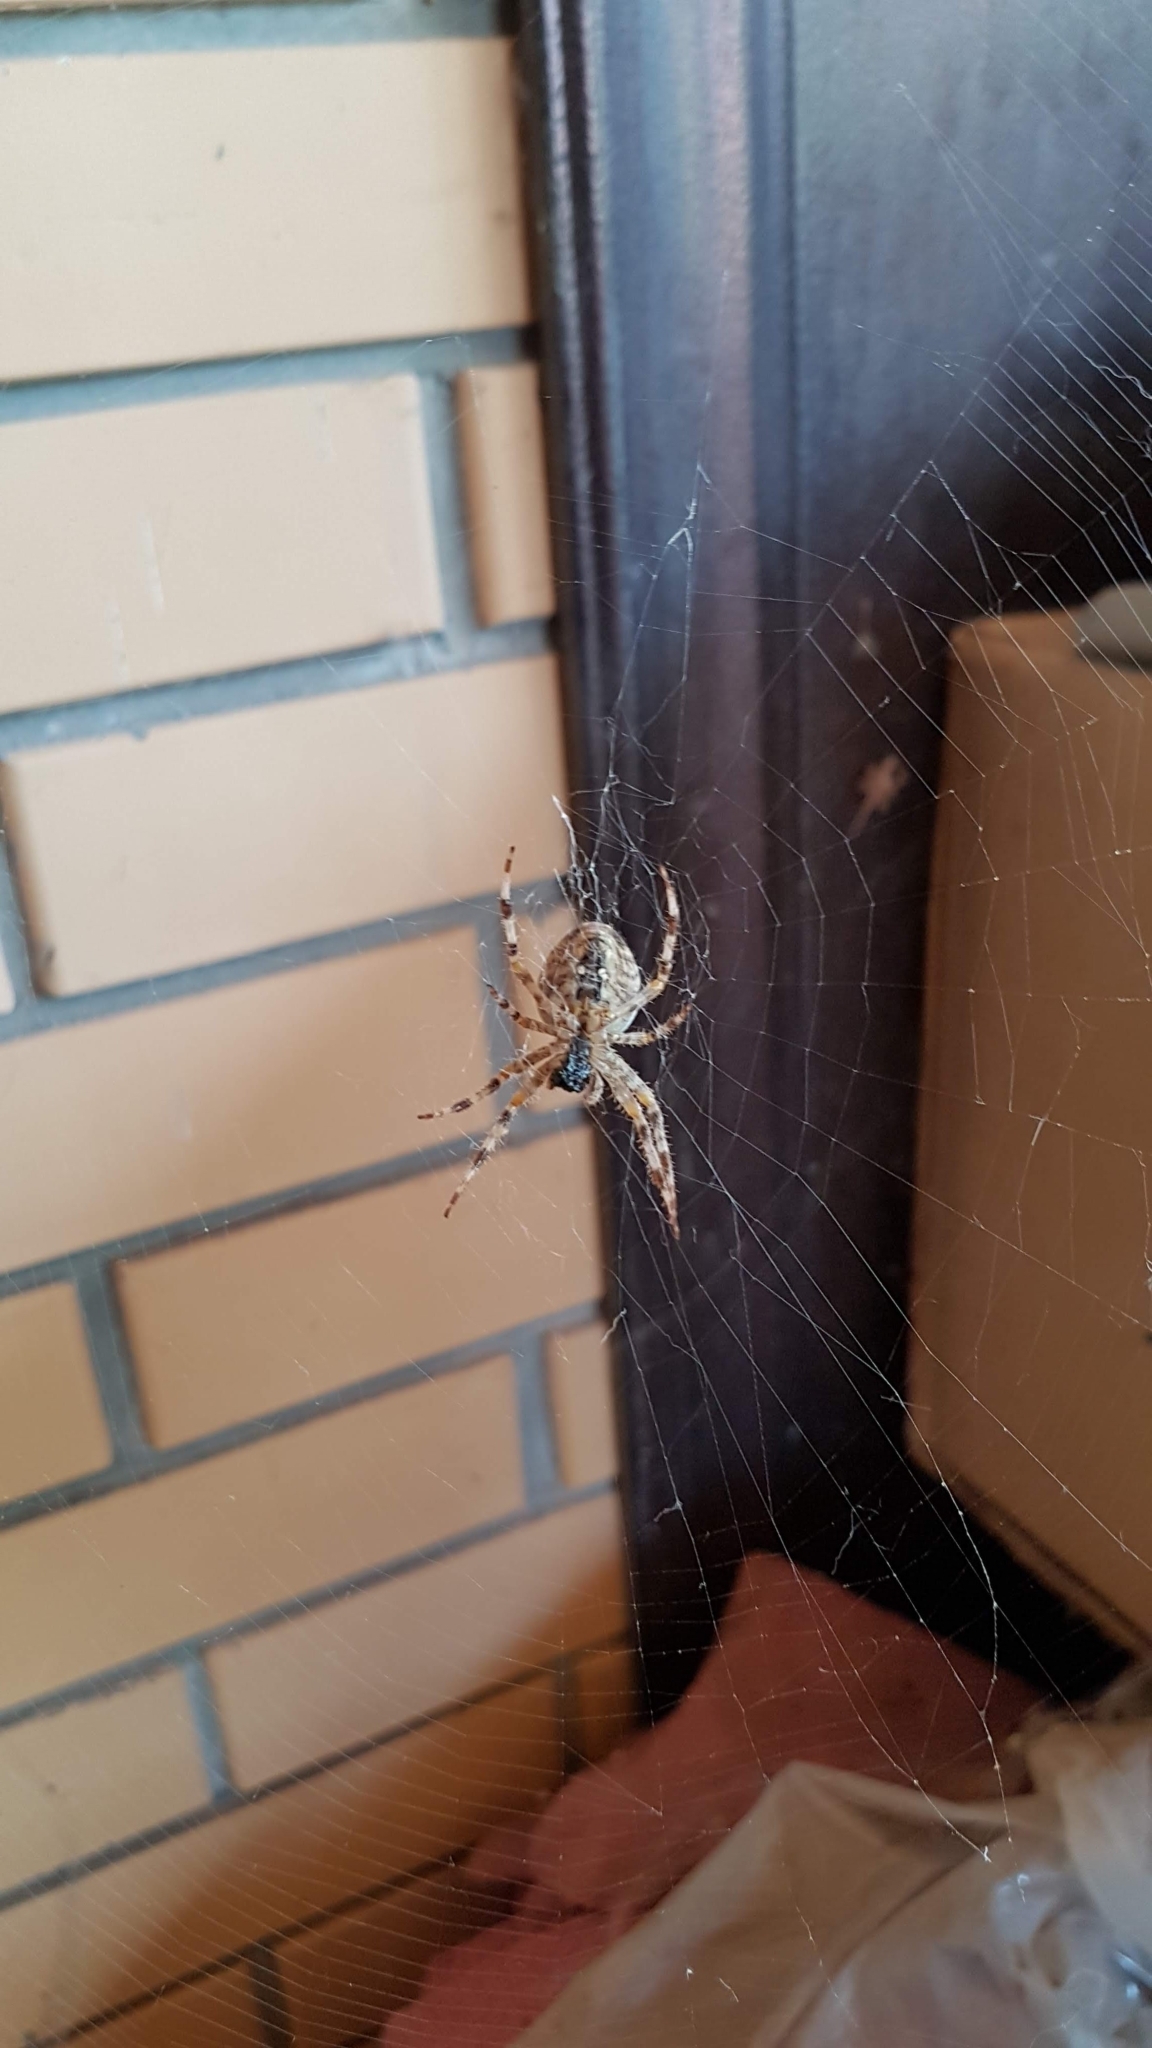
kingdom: Animalia
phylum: Arthropoda
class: Arachnida
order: Araneae
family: Araneidae
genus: Araneus
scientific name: Araneus diadematus
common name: Cross orbweaver
